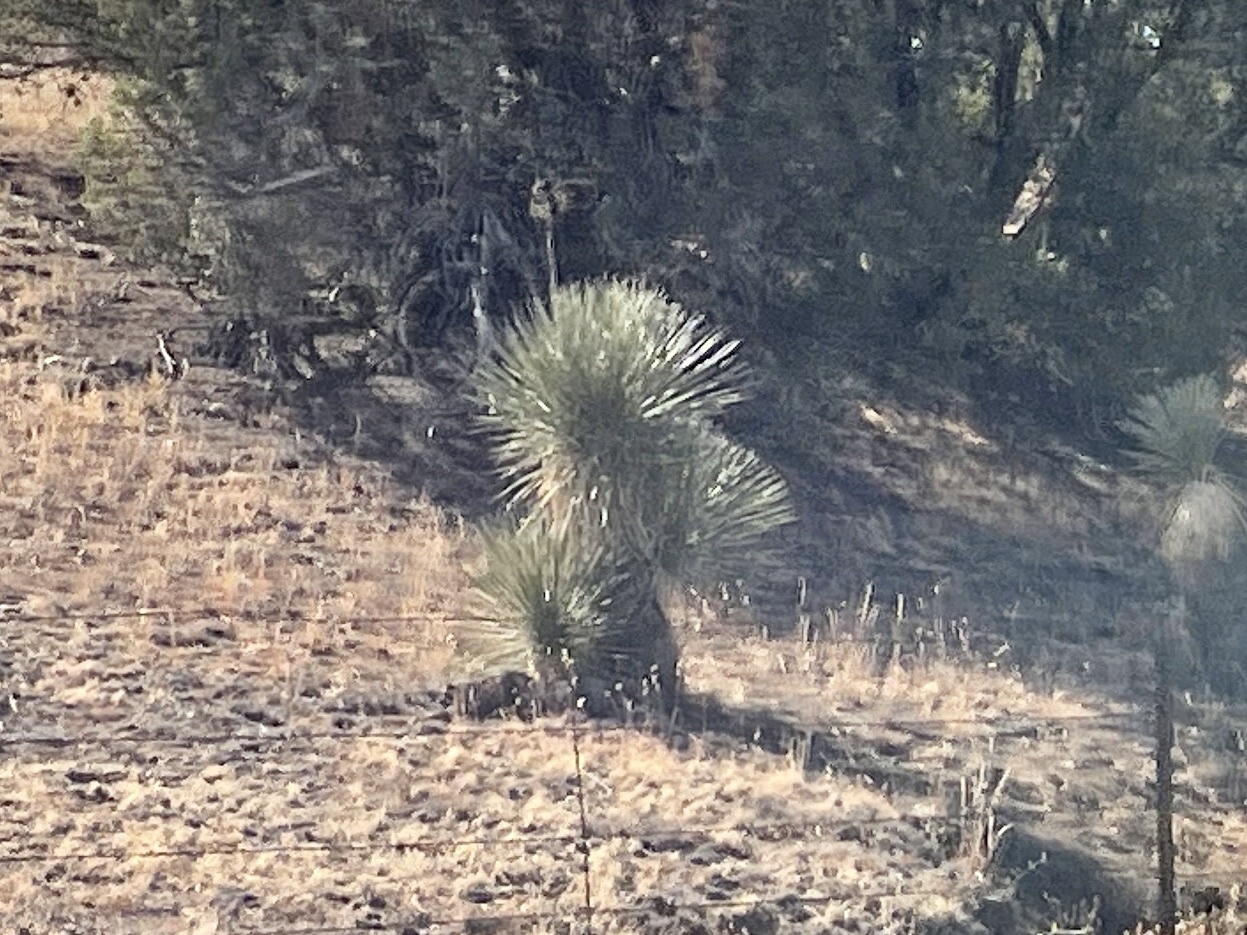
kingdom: Plantae
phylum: Tracheophyta
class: Liliopsida
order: Asparagales
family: Asparagaceae
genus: Yucca
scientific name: Yucca elata
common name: Palmella
